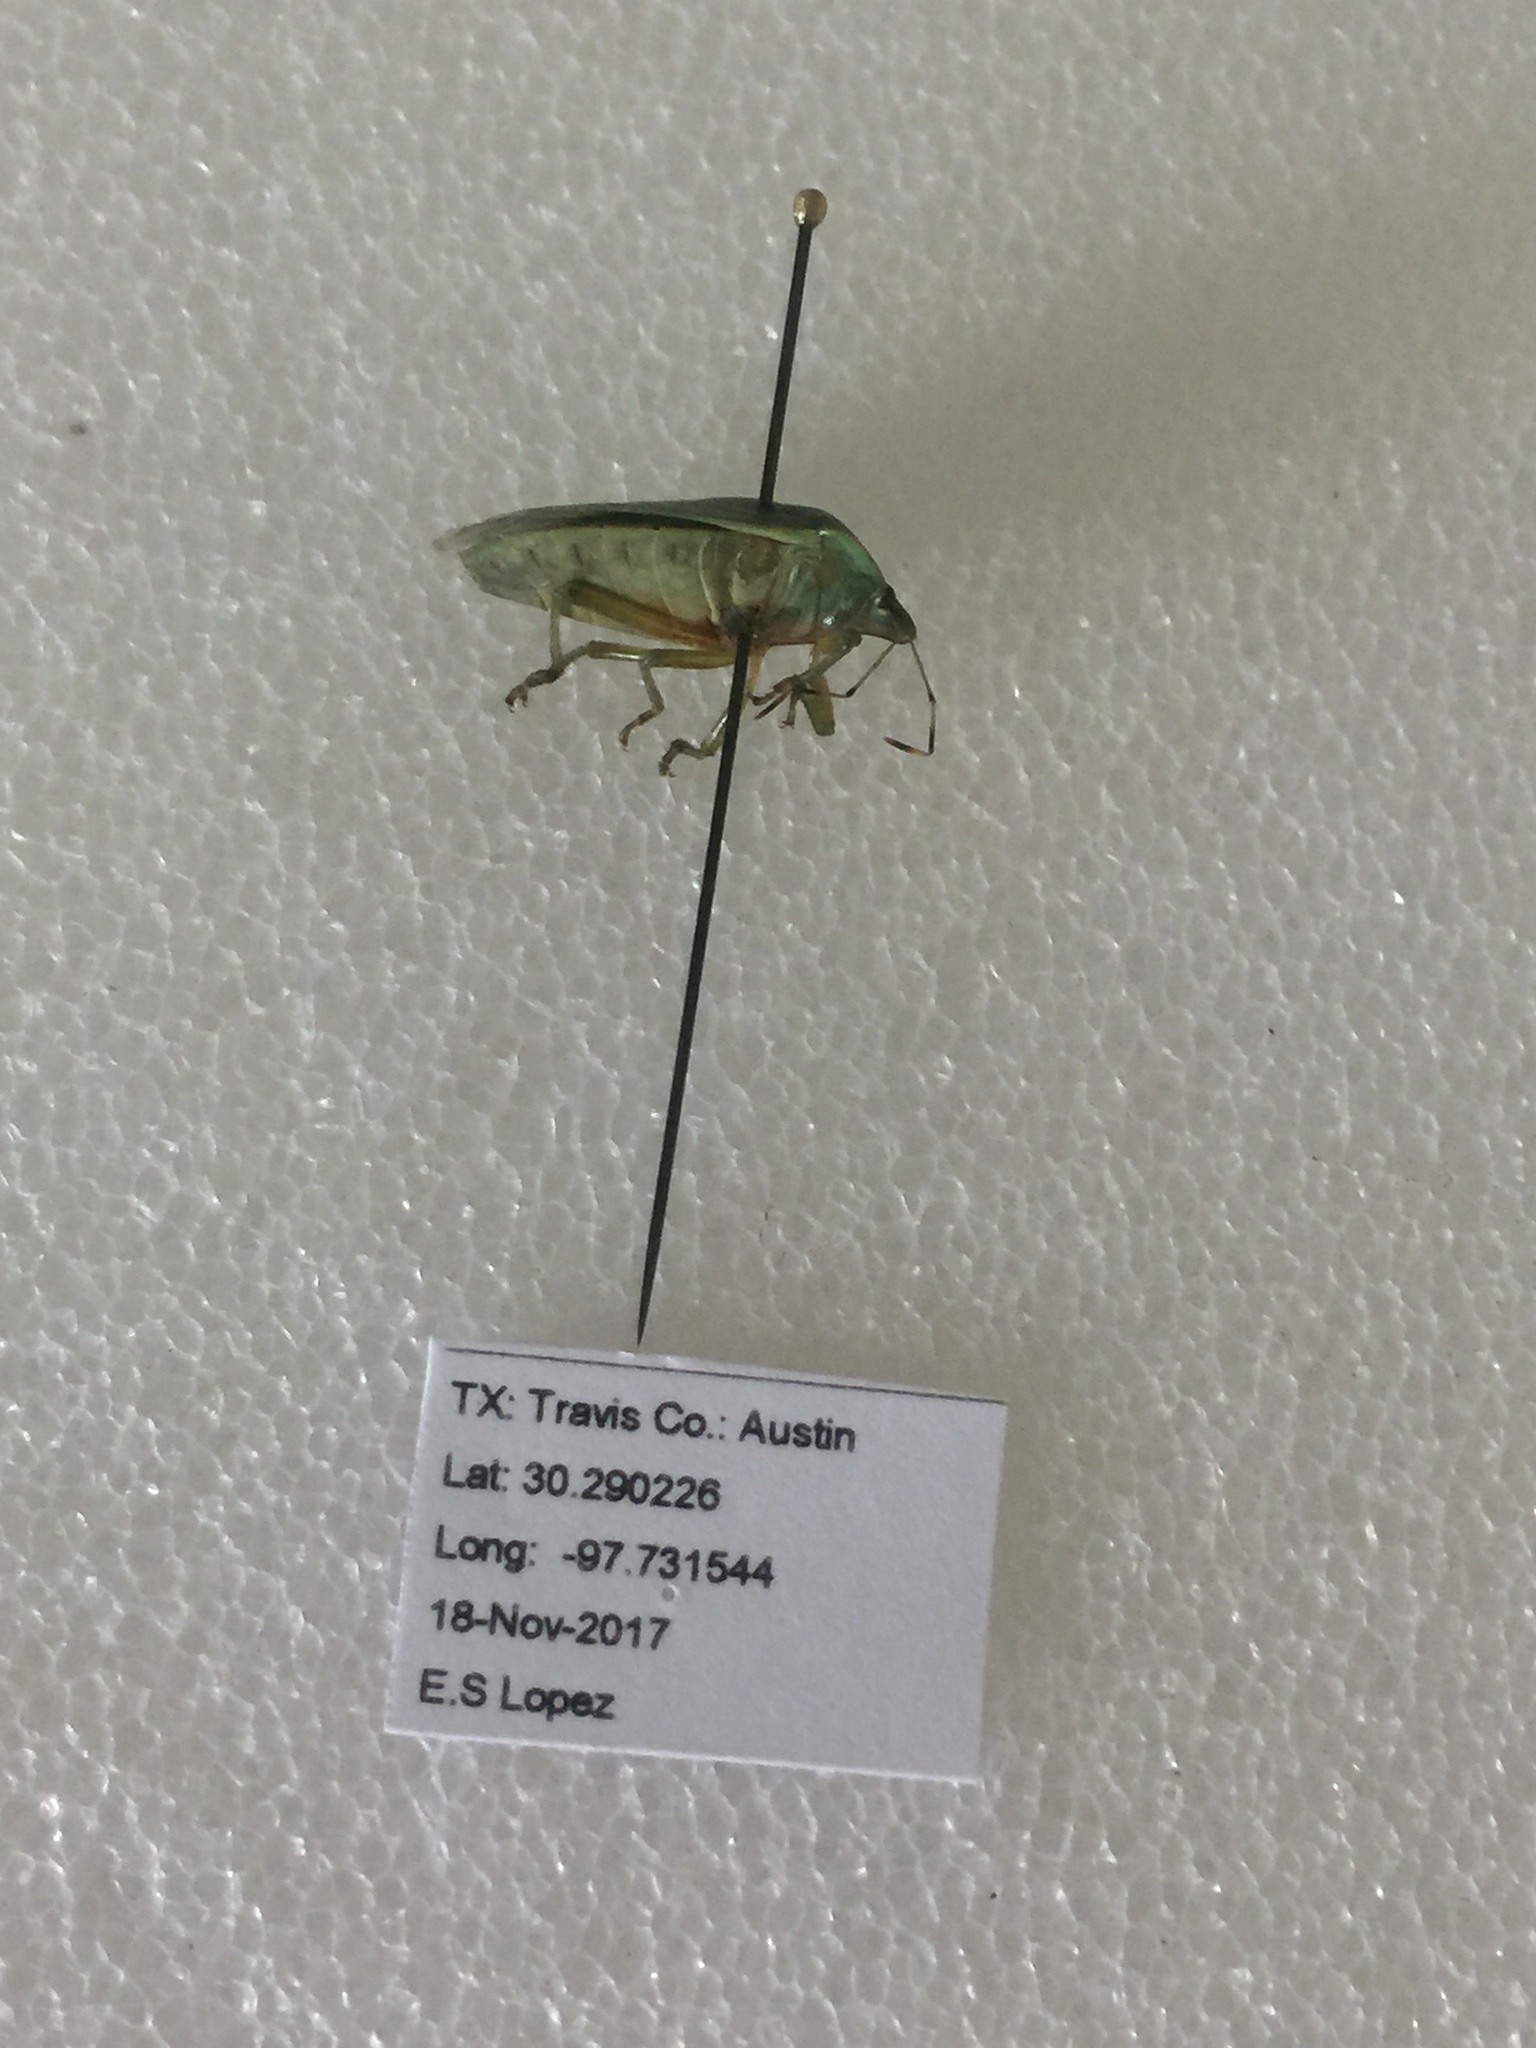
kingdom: Animalia
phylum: Arthropoda
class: Insecta
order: Hemiptera
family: Pentatomidae
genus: Chinavia
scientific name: Chinavia hilaris
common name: Green stink bug
